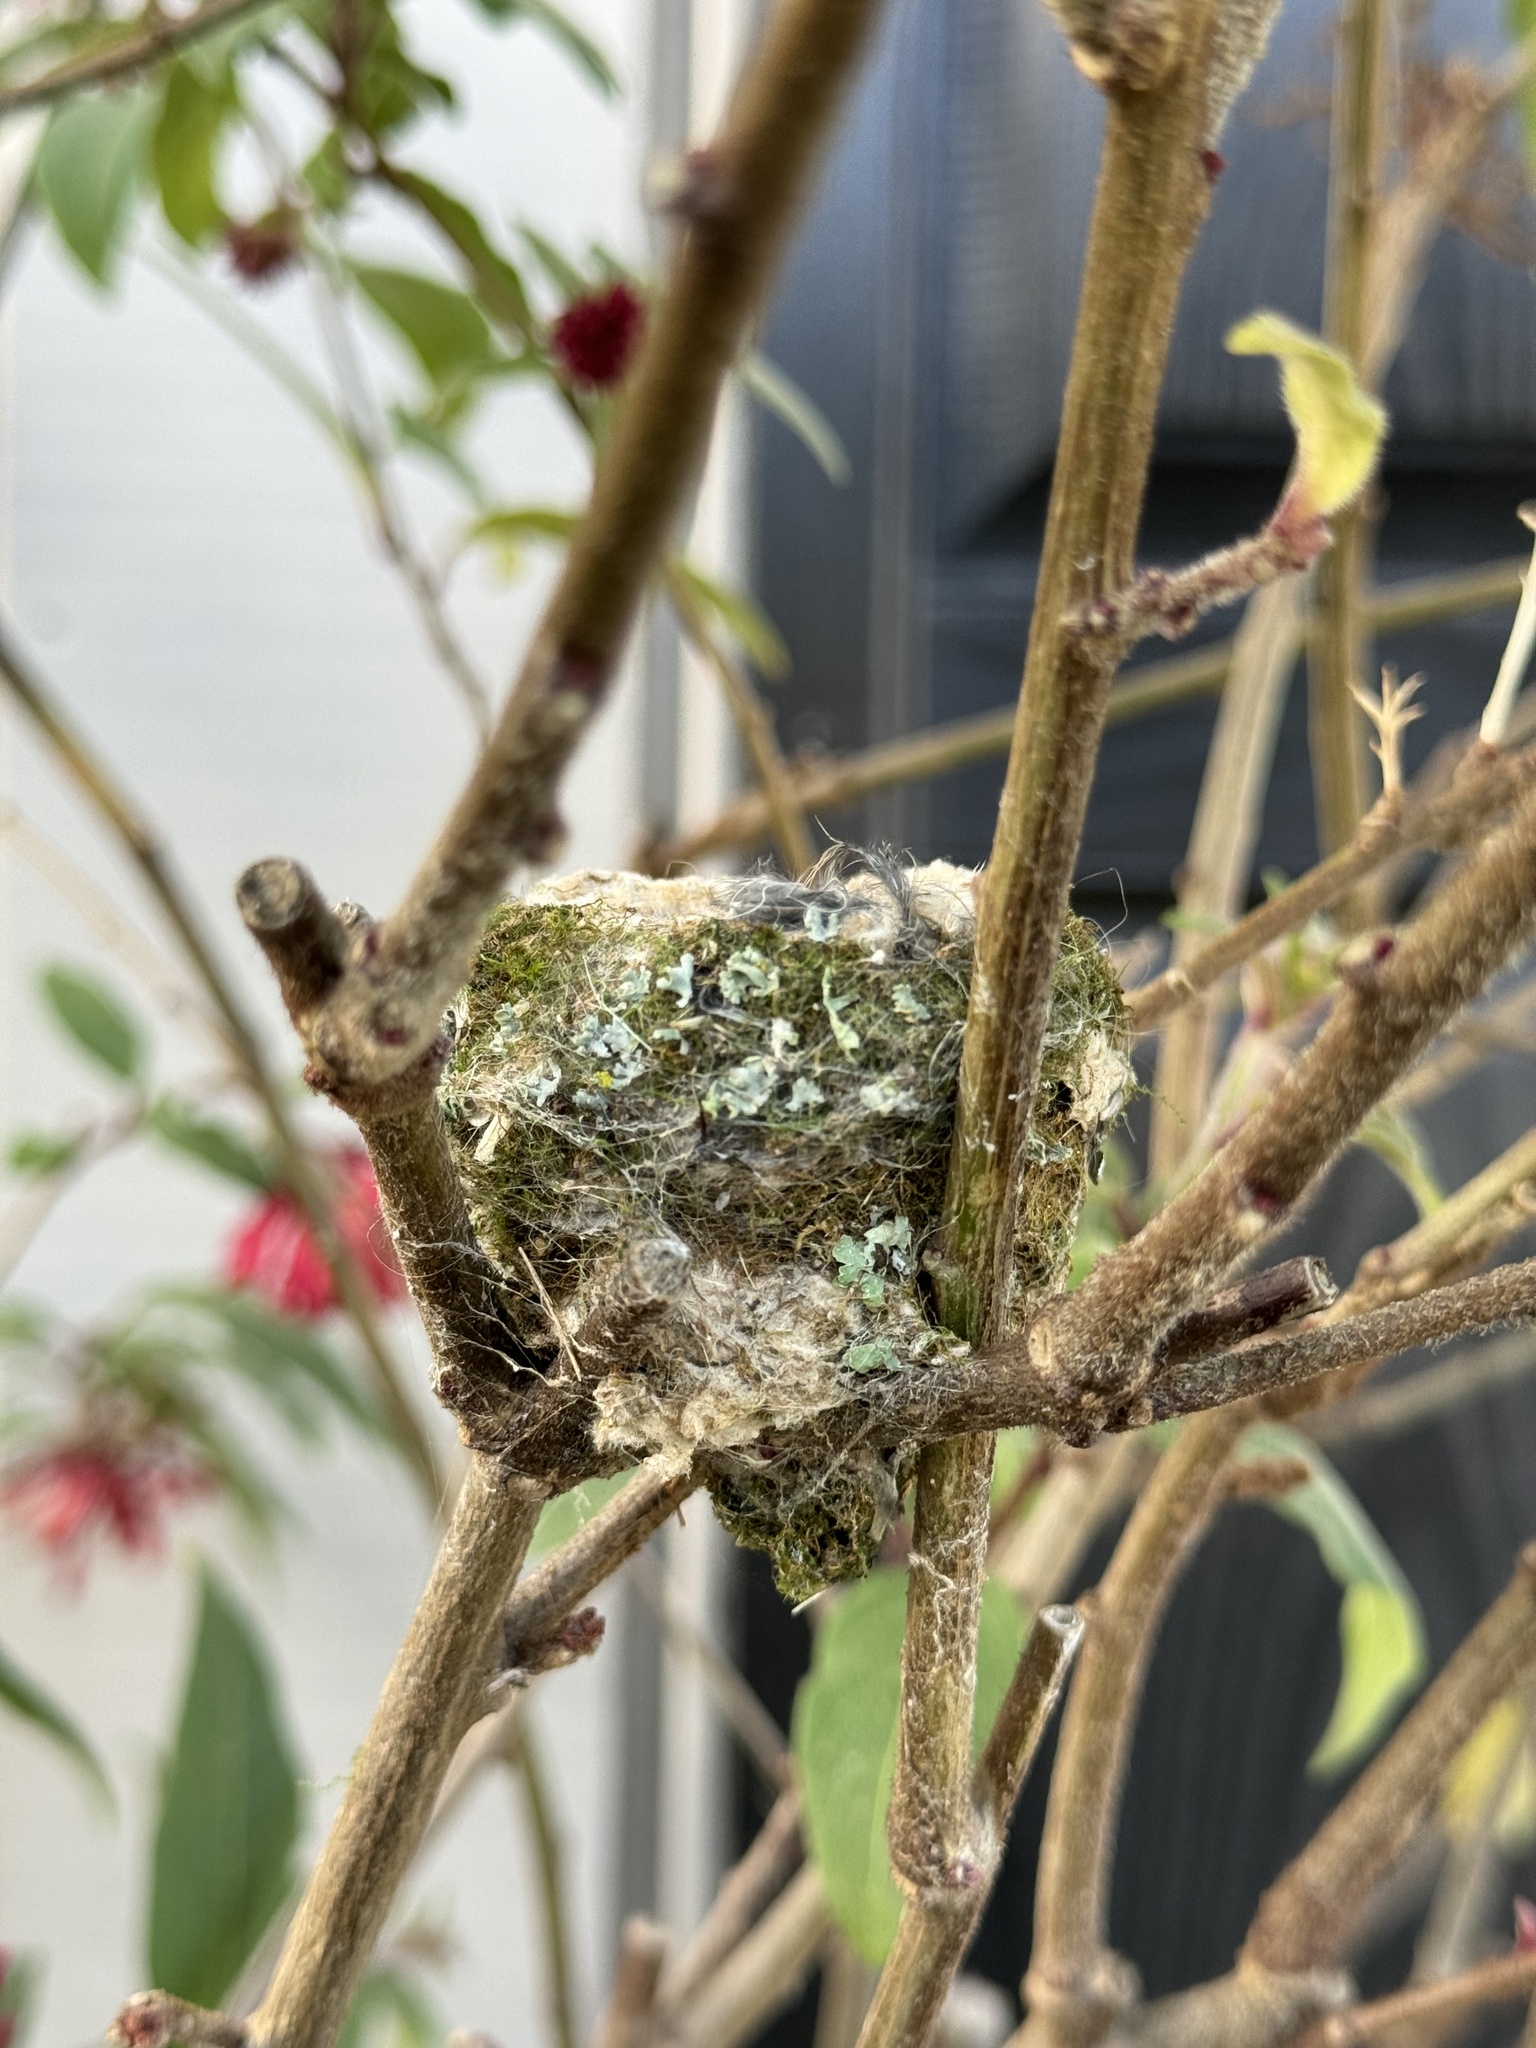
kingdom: Animalia
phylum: Chordata
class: Aves
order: Apodiformes
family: Trochilidae
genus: Calypte
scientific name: Calypte anna
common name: Anna's hummingbird
